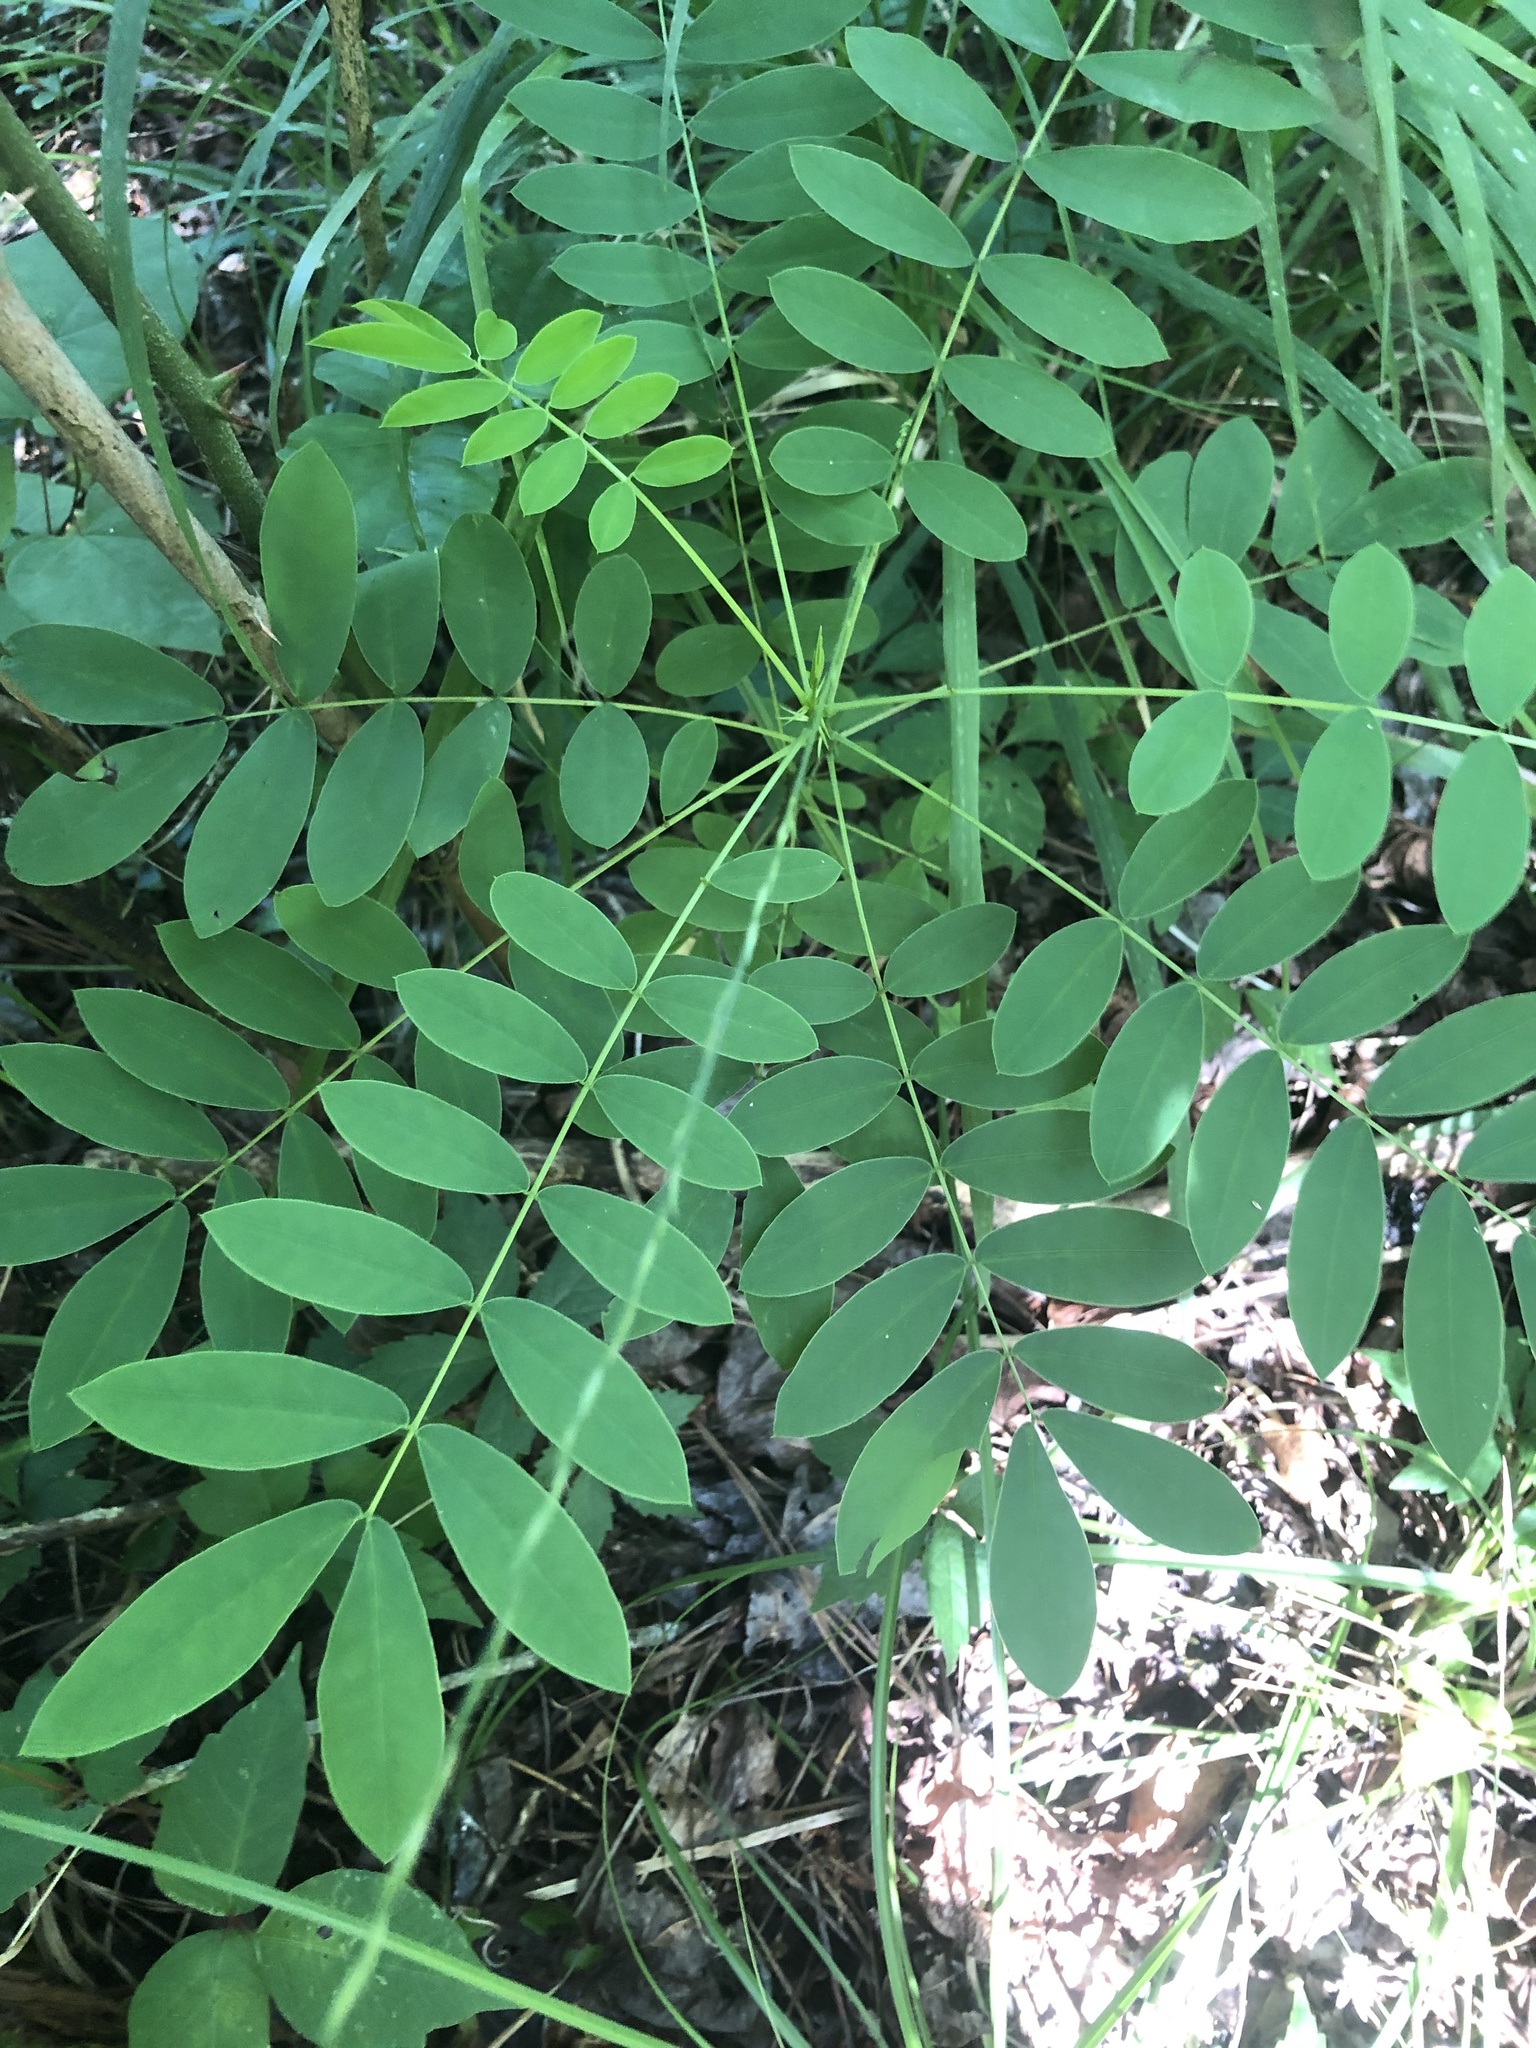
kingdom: Plantae
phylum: Tracheophyta
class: Magnoliopsida
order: Fabales
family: Fabaceae
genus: Senna
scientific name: Senna marilandica
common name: American senna
